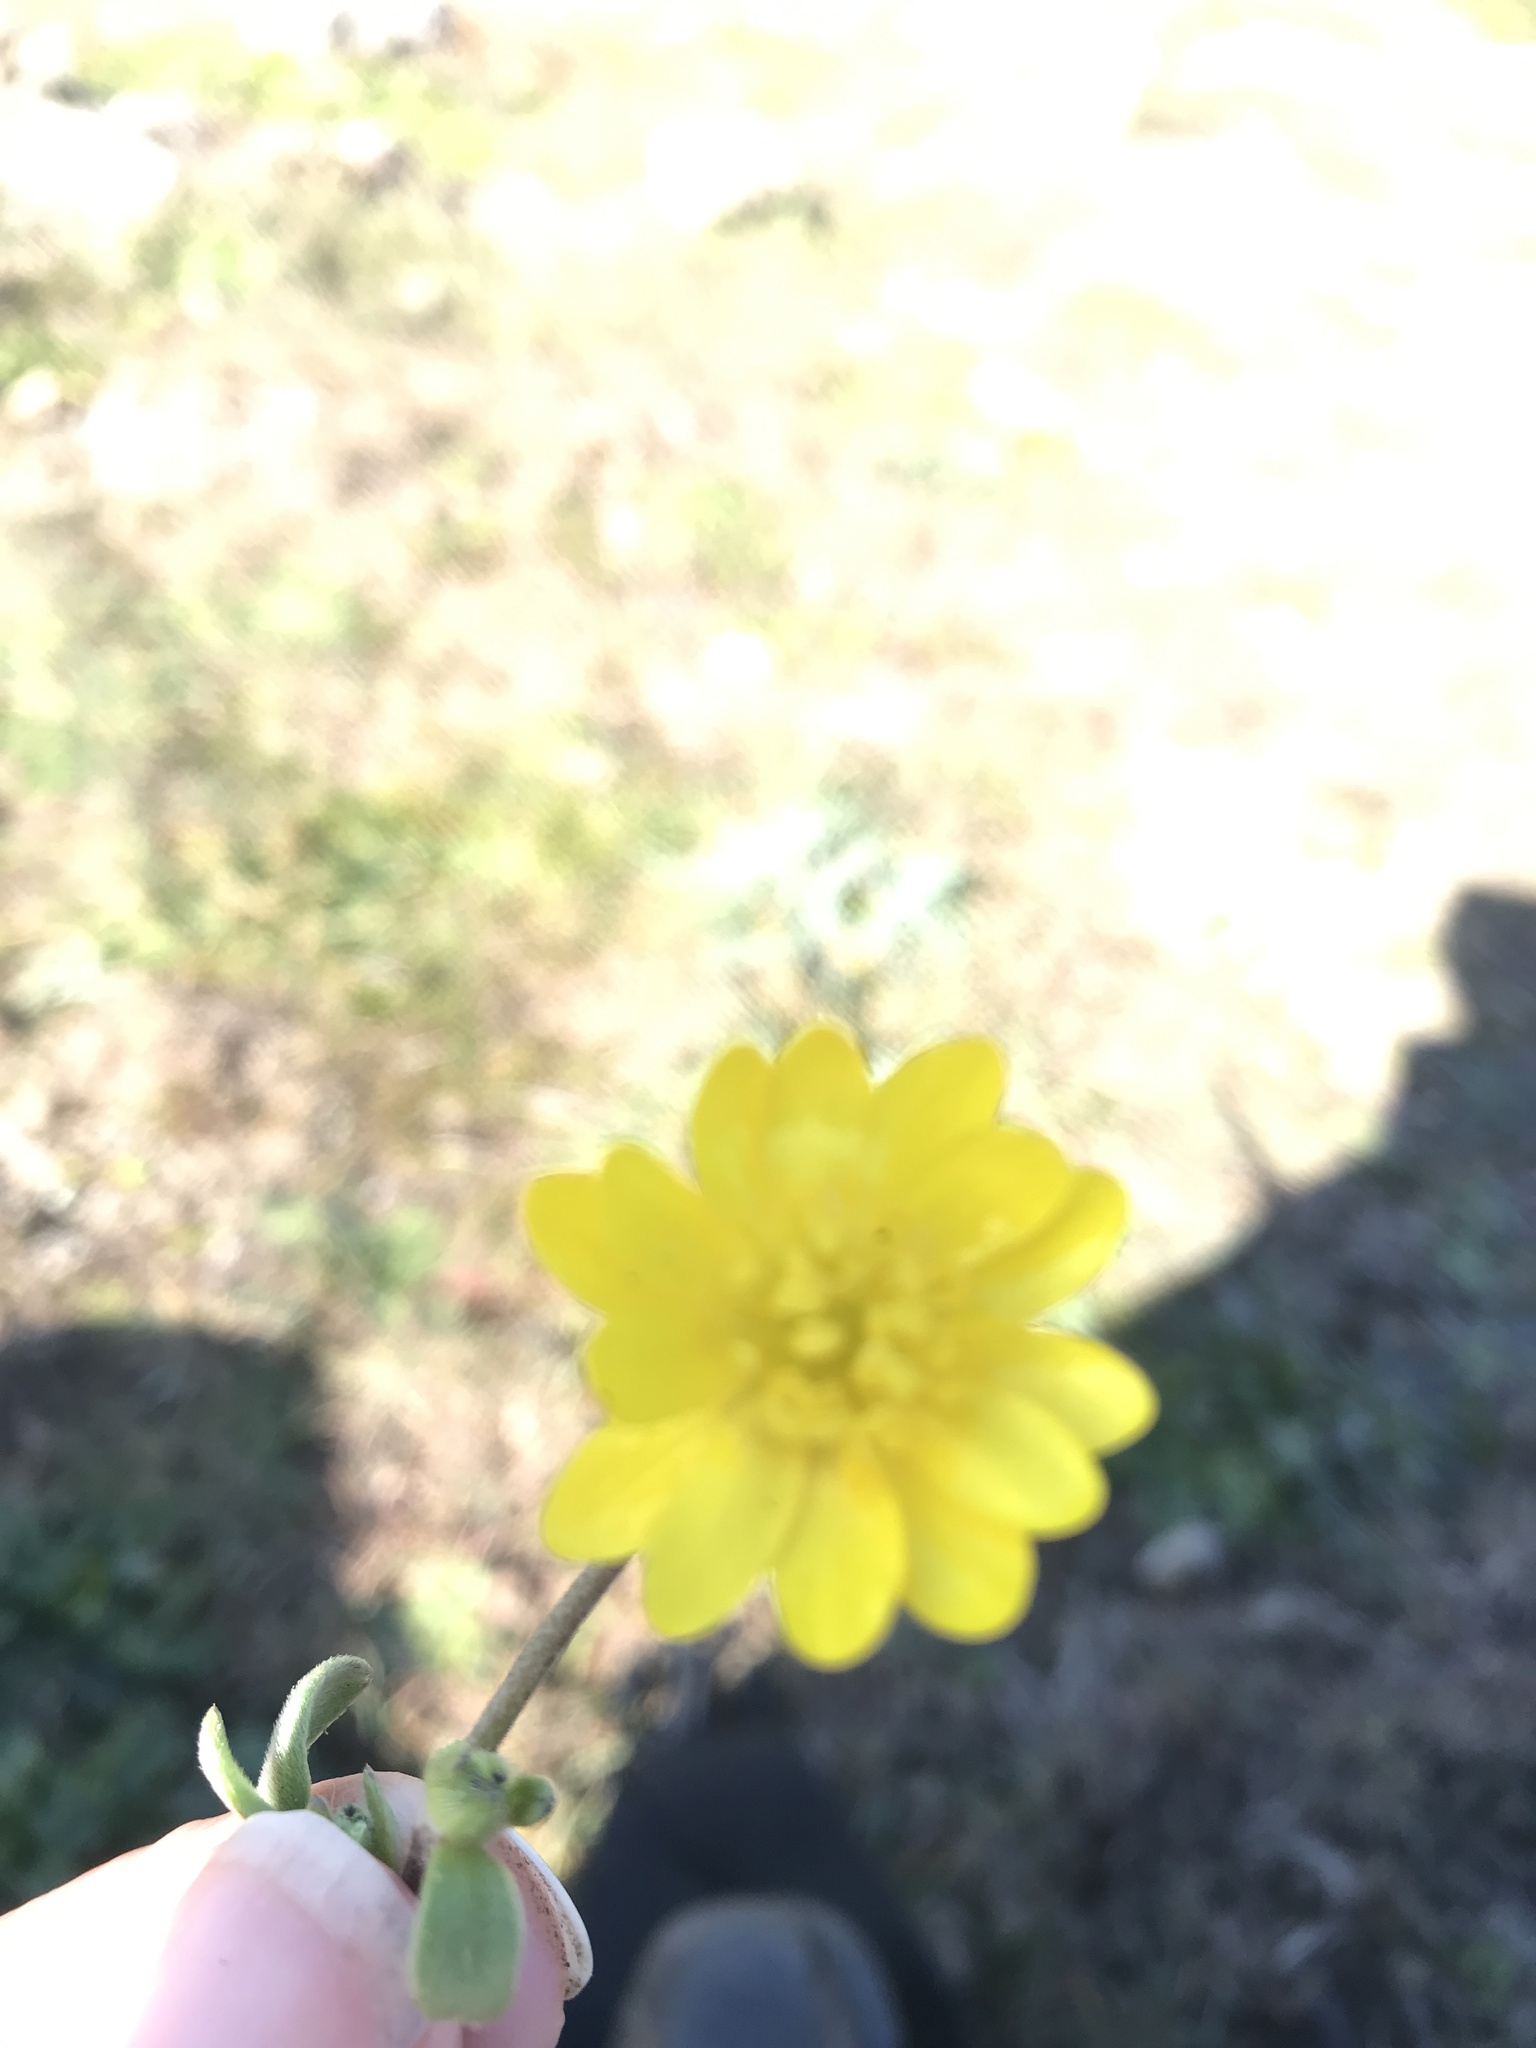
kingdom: Plantae
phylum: Tracheophyta
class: Magnoliopsida
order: Ranunculales
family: Ranunculaceae
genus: Ranunculus
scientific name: Ranunculus californicus
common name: California buttercup
